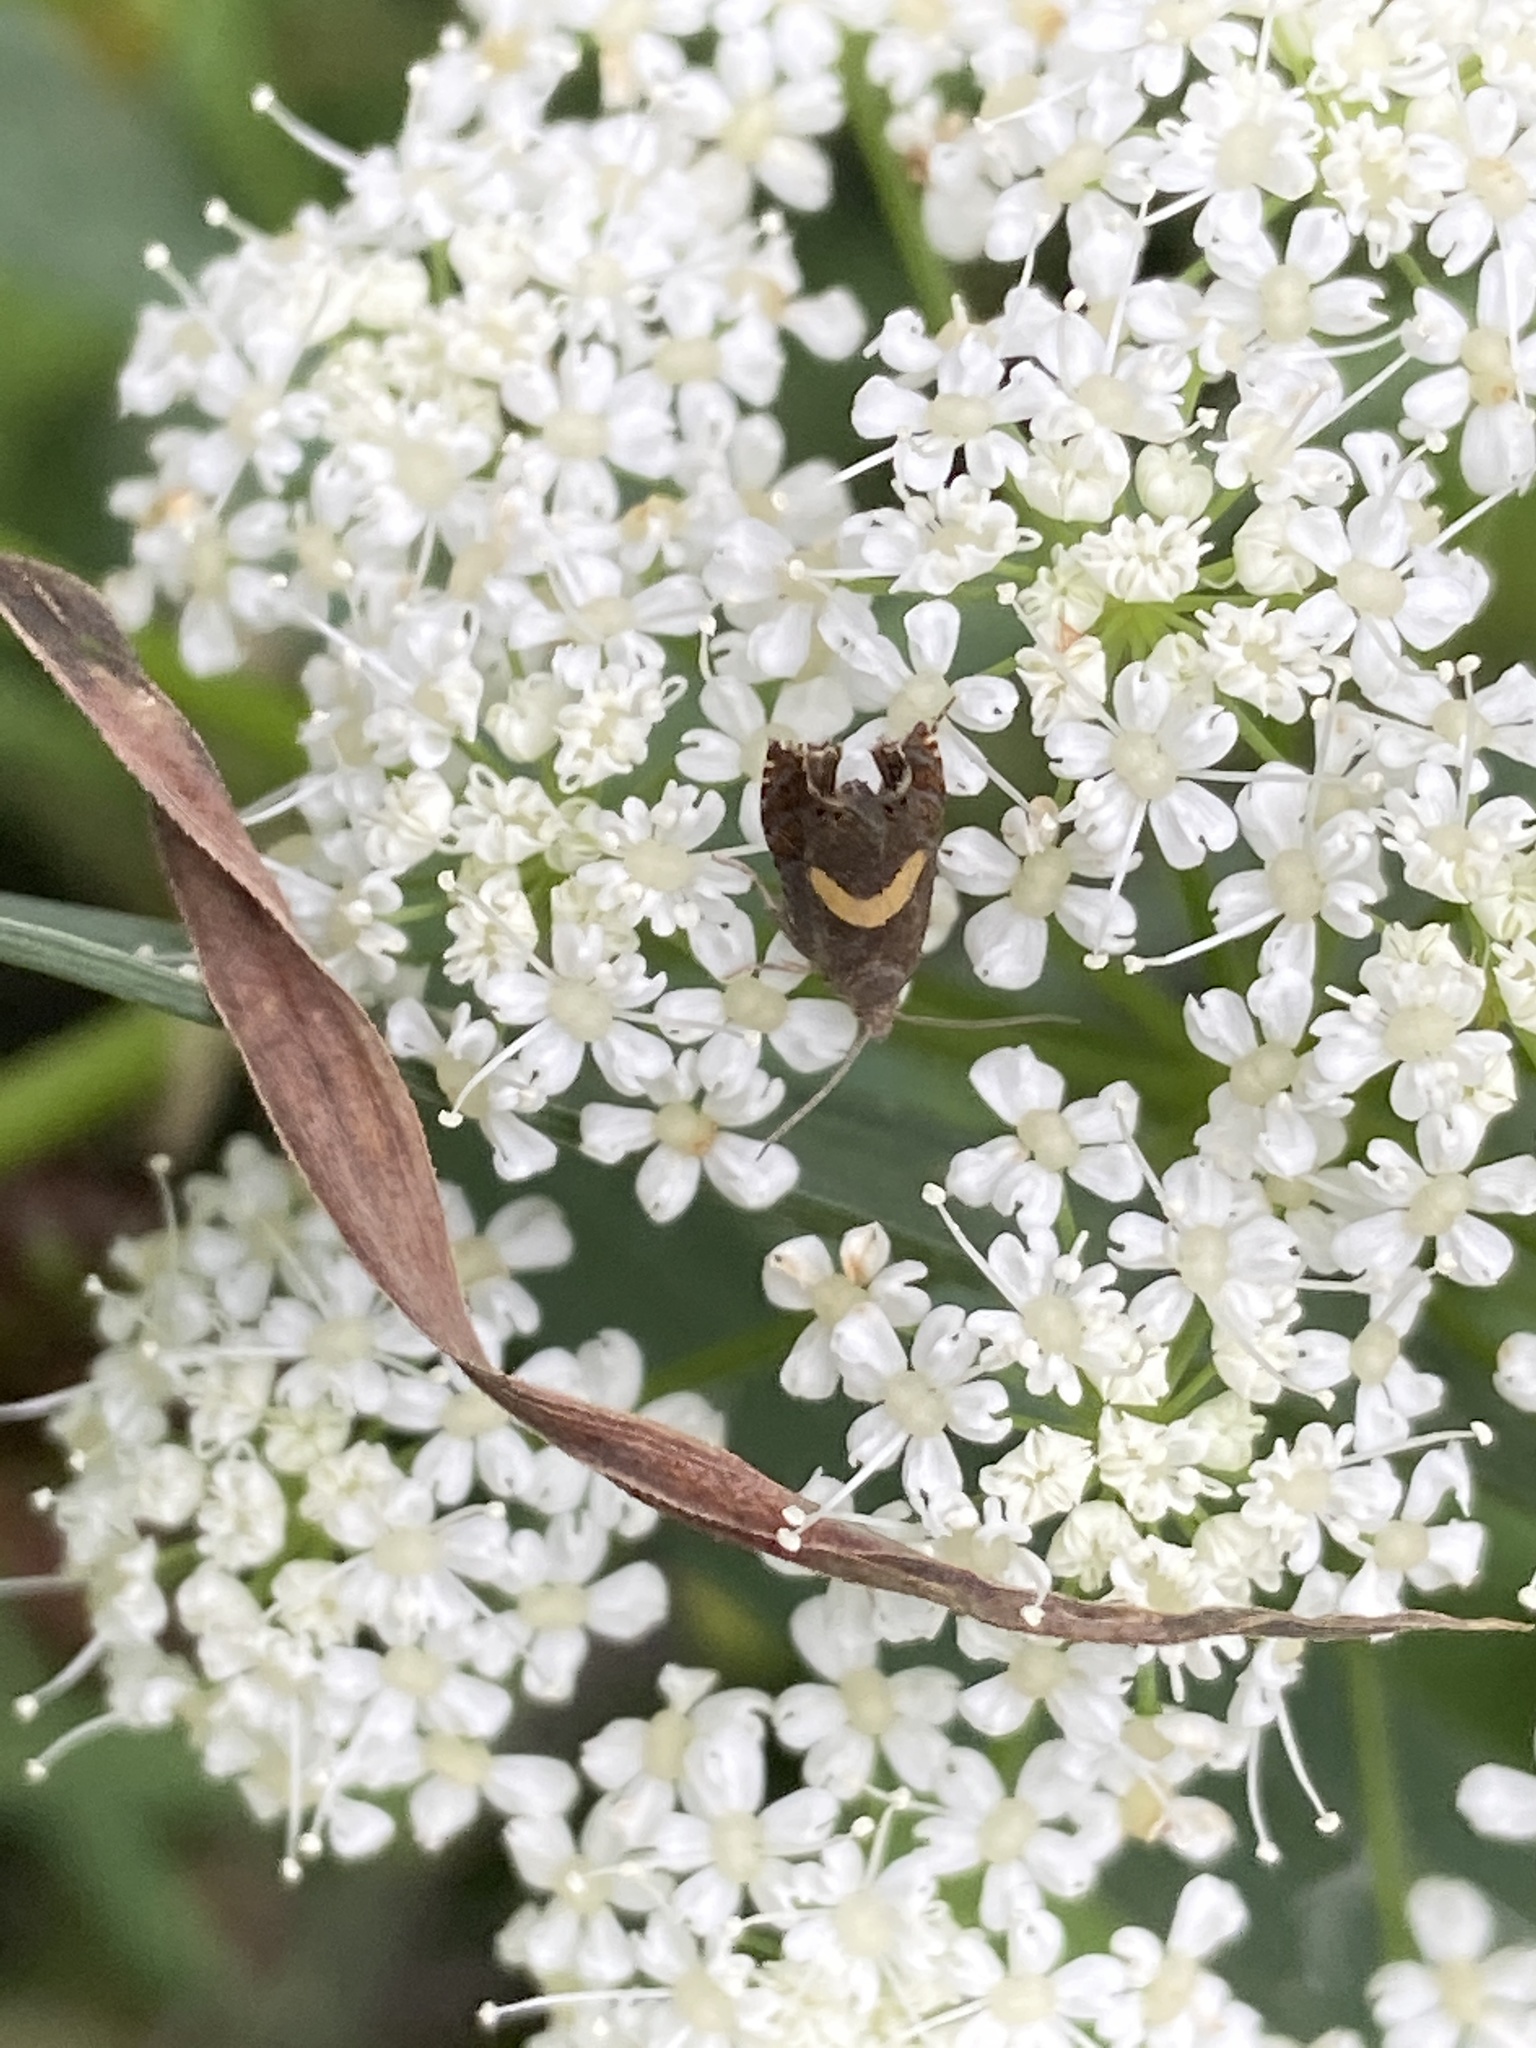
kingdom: Animalia
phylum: Arthropoda
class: Insecta
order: Lepidoptera
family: Tortricidae
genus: Dichrorampha
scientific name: Dichrorampha petiverella
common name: Common drill
